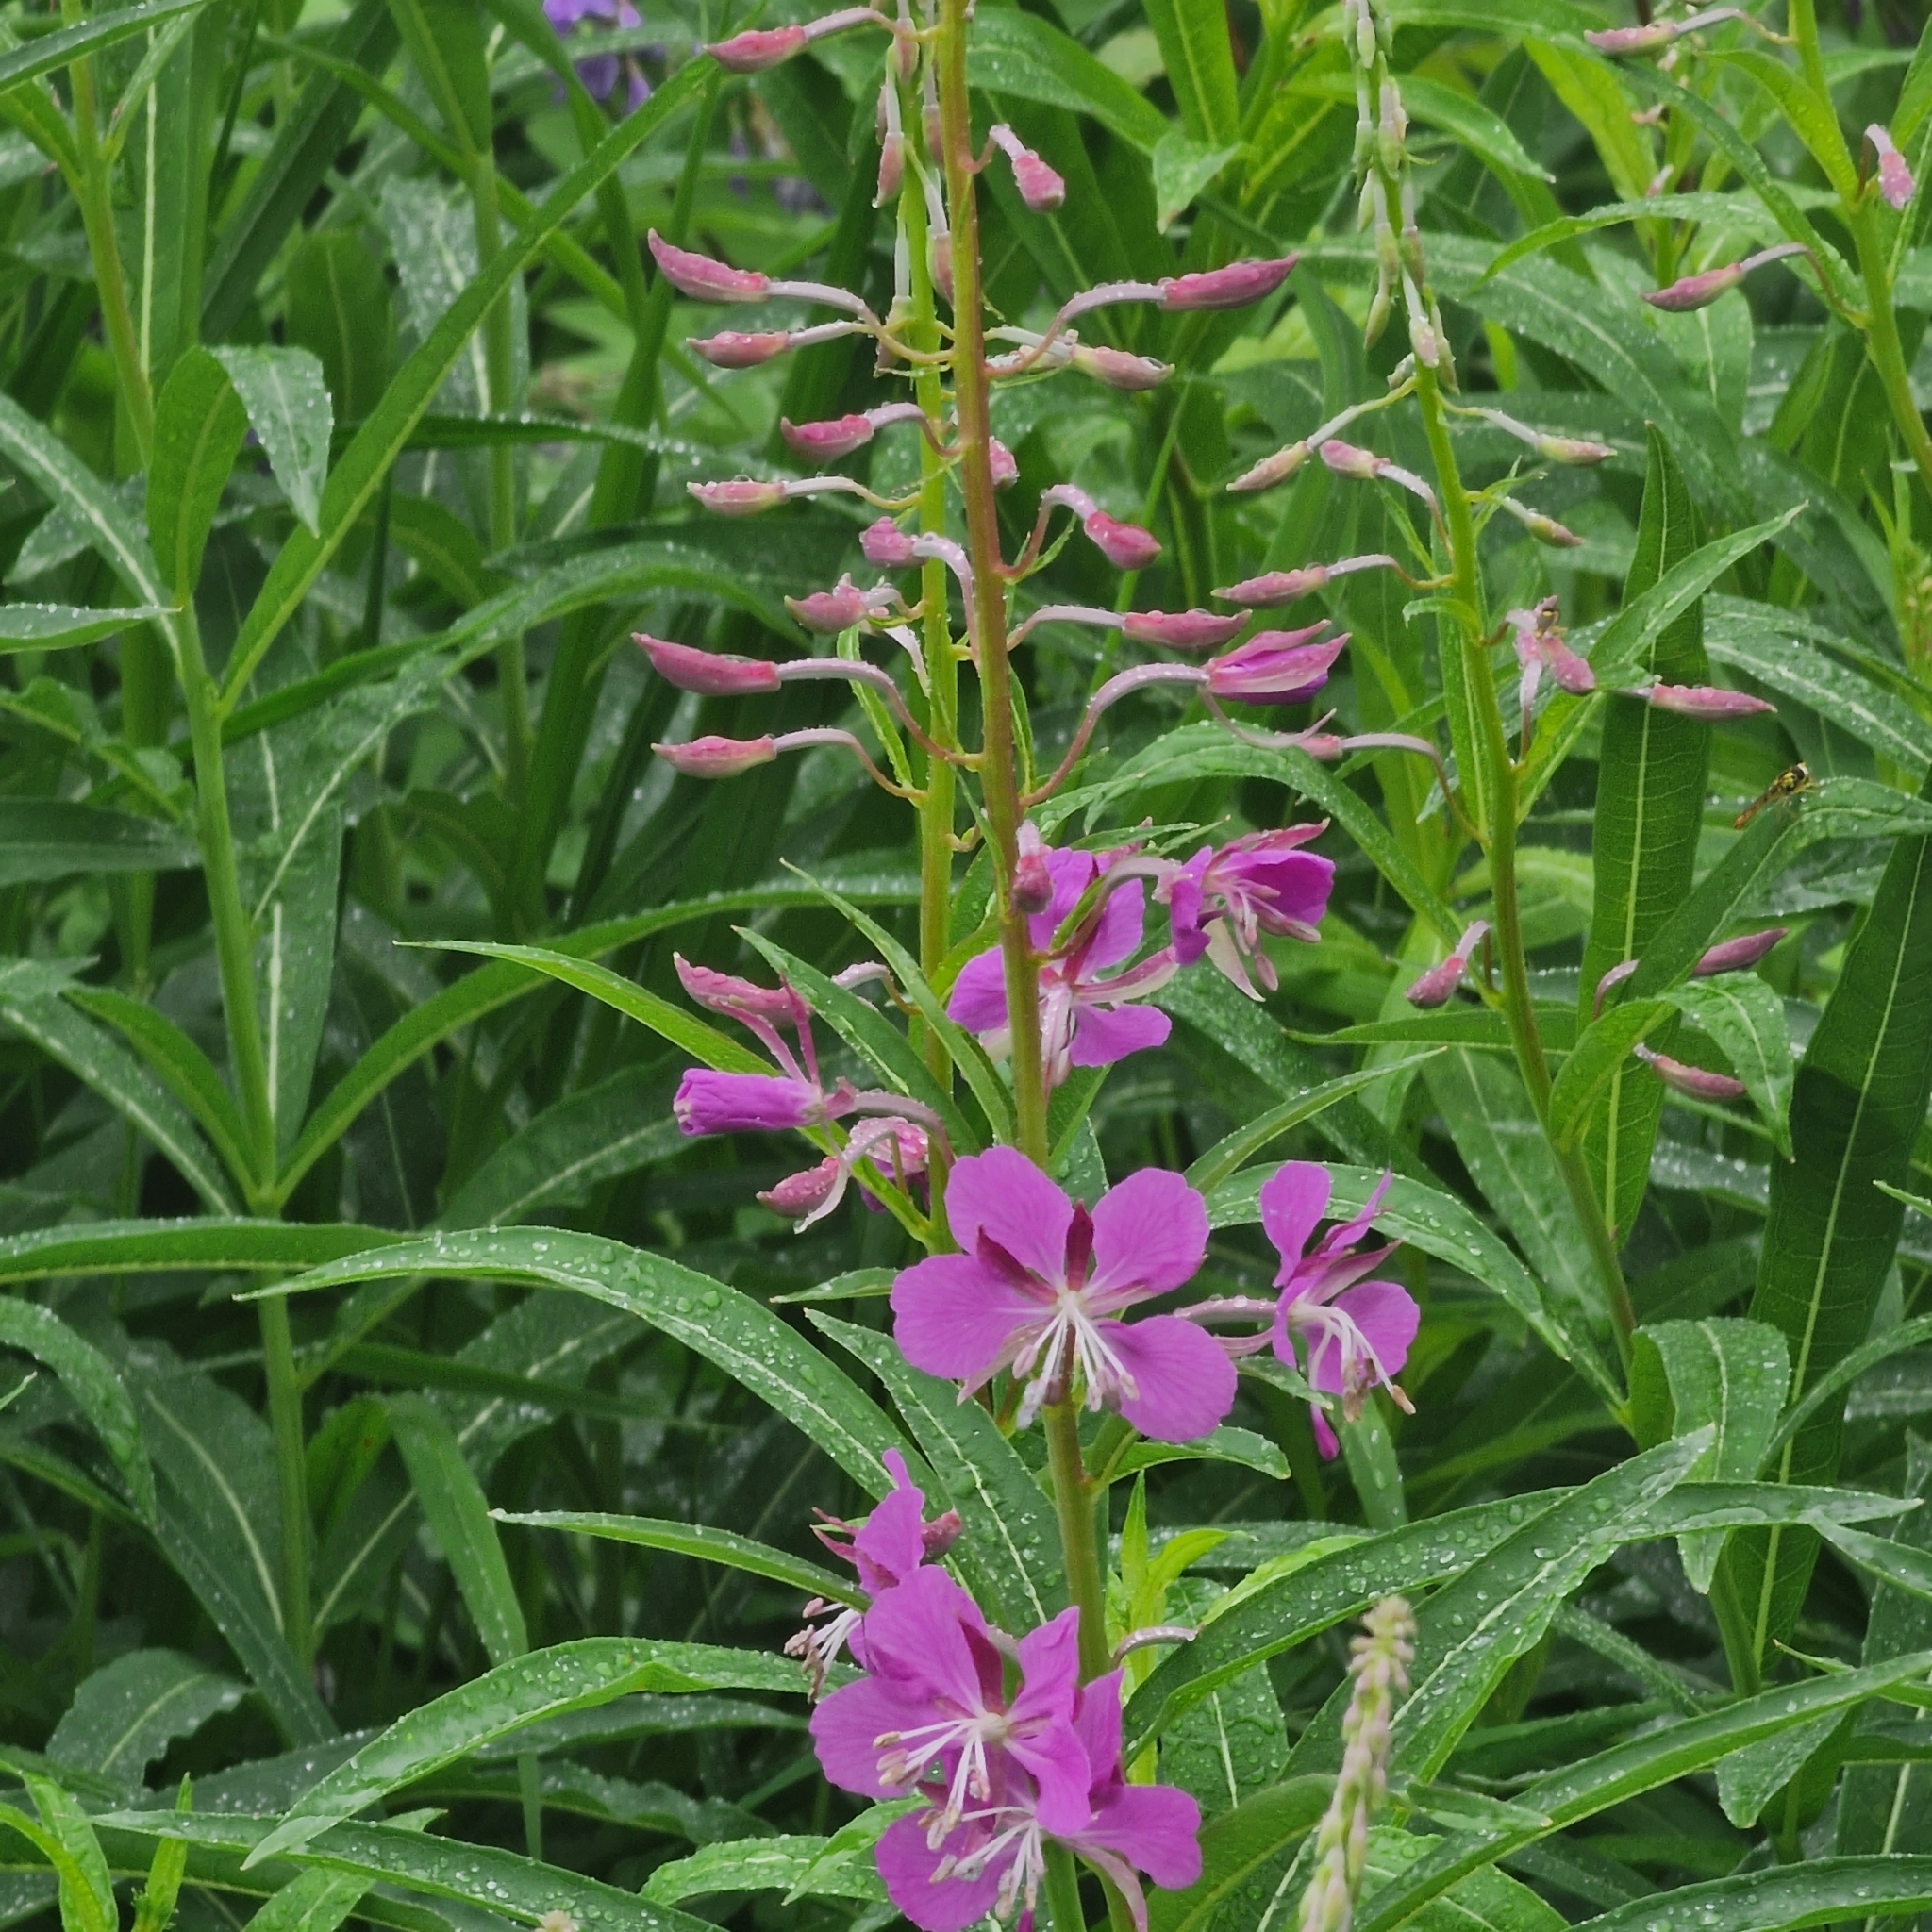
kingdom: Plantae
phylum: Tracheophyta
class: Magnoliopsida
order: Myrtales
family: Onagraceae
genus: Chamaenerion
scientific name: Chamaenerion angustifolium
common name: Fireweed
